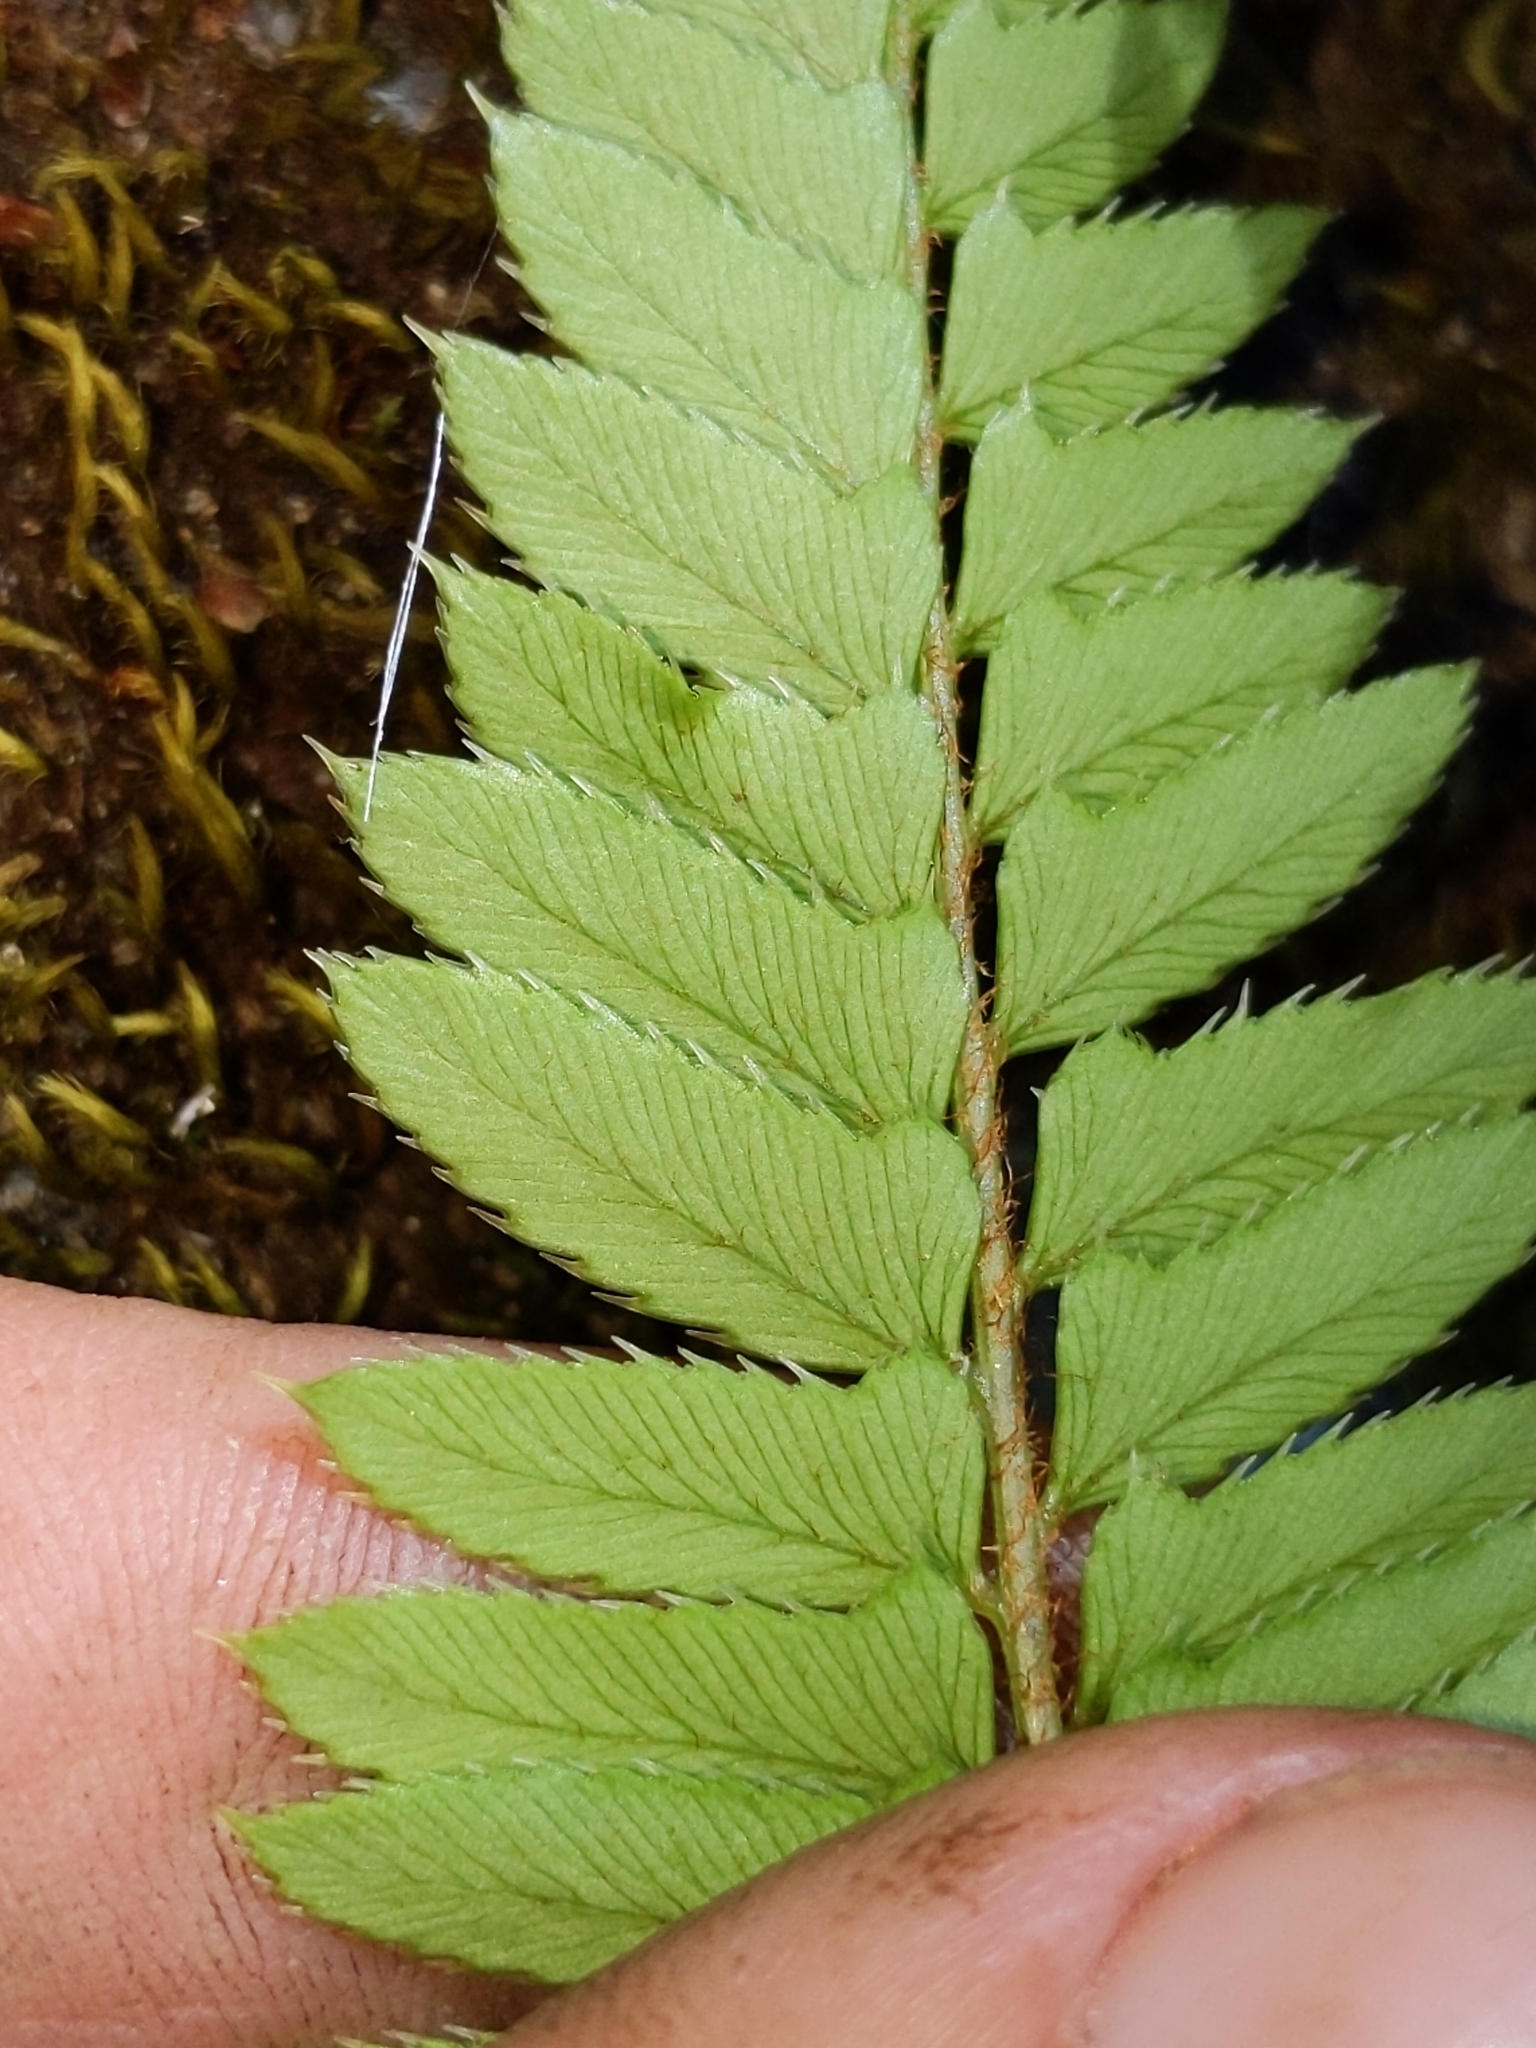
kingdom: Plantae
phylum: Tracheophyta
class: Polypodiopsida
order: Polypodiales
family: Dryopteridaceae
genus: Polystichum
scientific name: Polystichum imbricans
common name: Dwarf western sword fern
